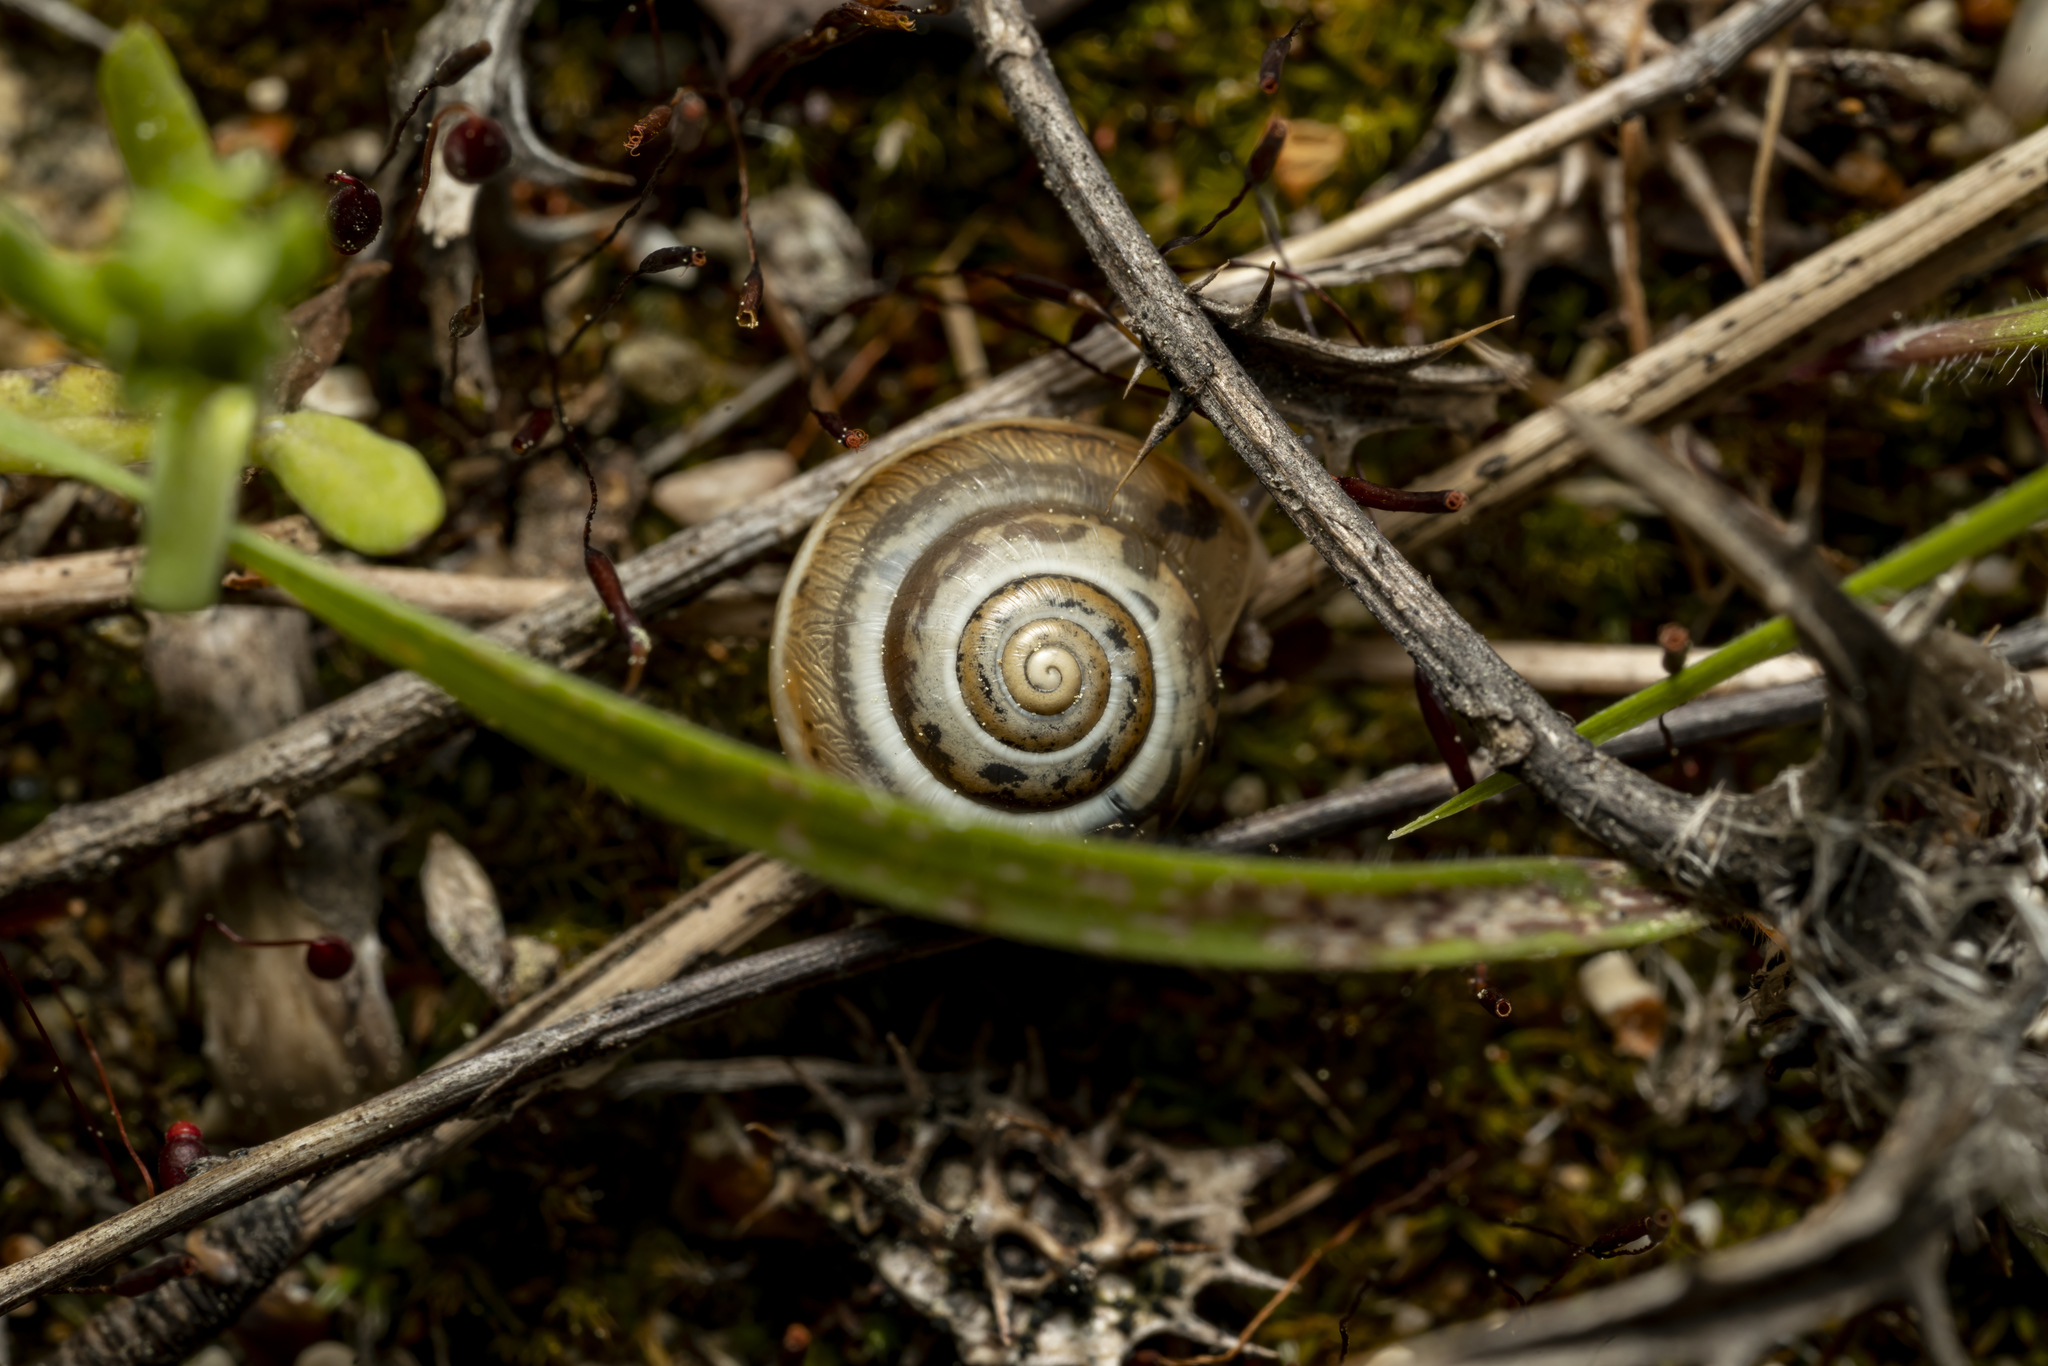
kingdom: Animalia
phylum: Mollusca
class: Gastropoda
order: Stylommatophora
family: Hygromiidae
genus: Monacha
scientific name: Monacha syriaca
